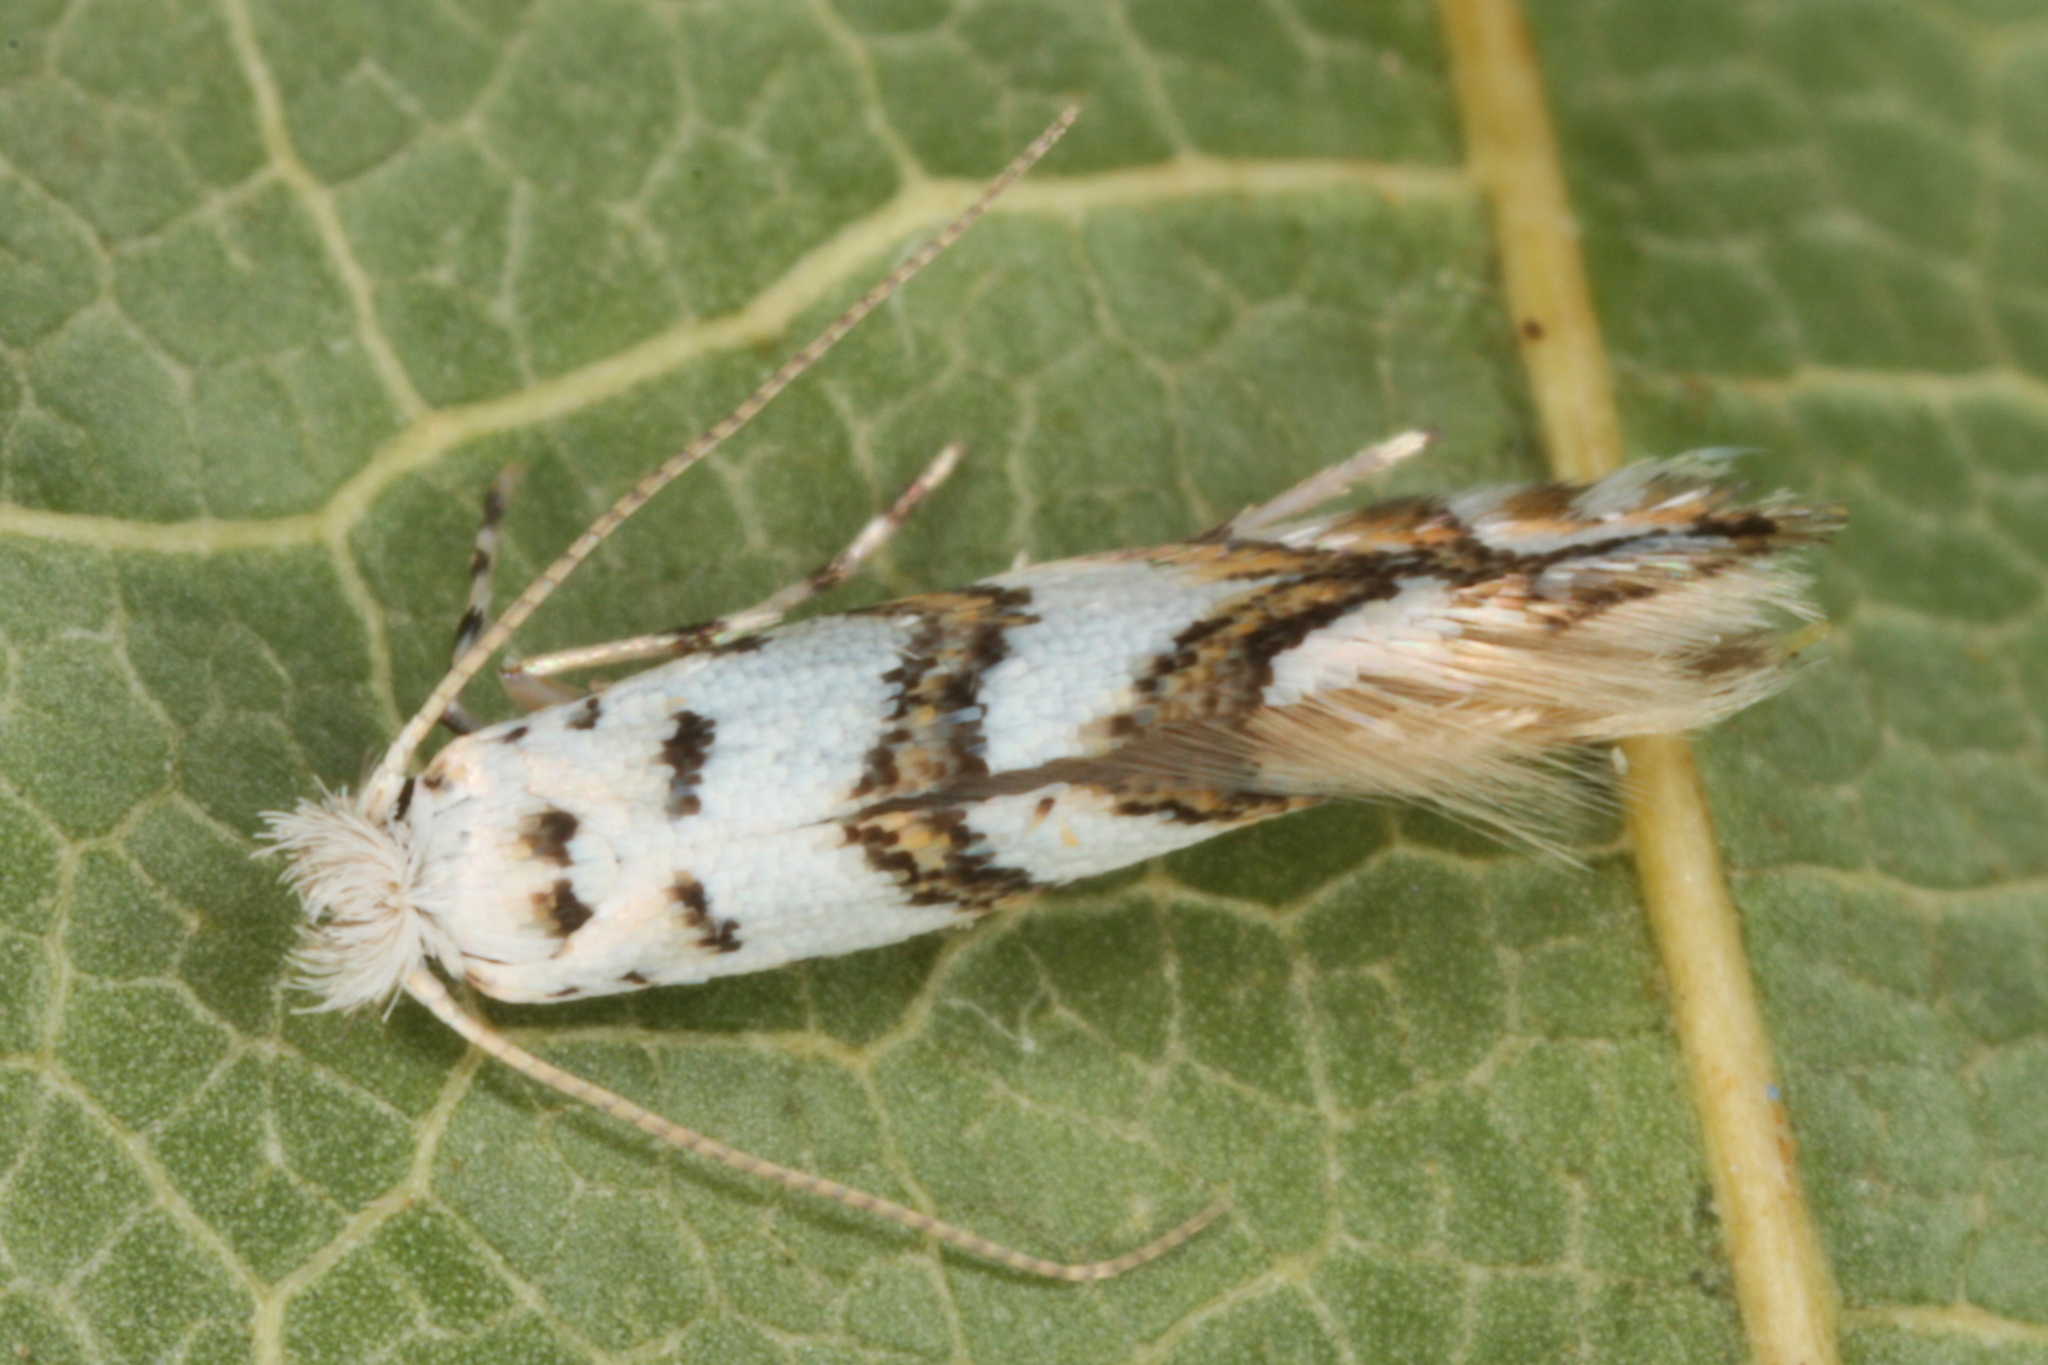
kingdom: Animalia
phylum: Arthropoda
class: Insecta
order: Lepidoptera
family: Gracillariidae
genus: Phyllonorycter
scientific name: Phyllonorycter joannisi
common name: White-bodied midget
